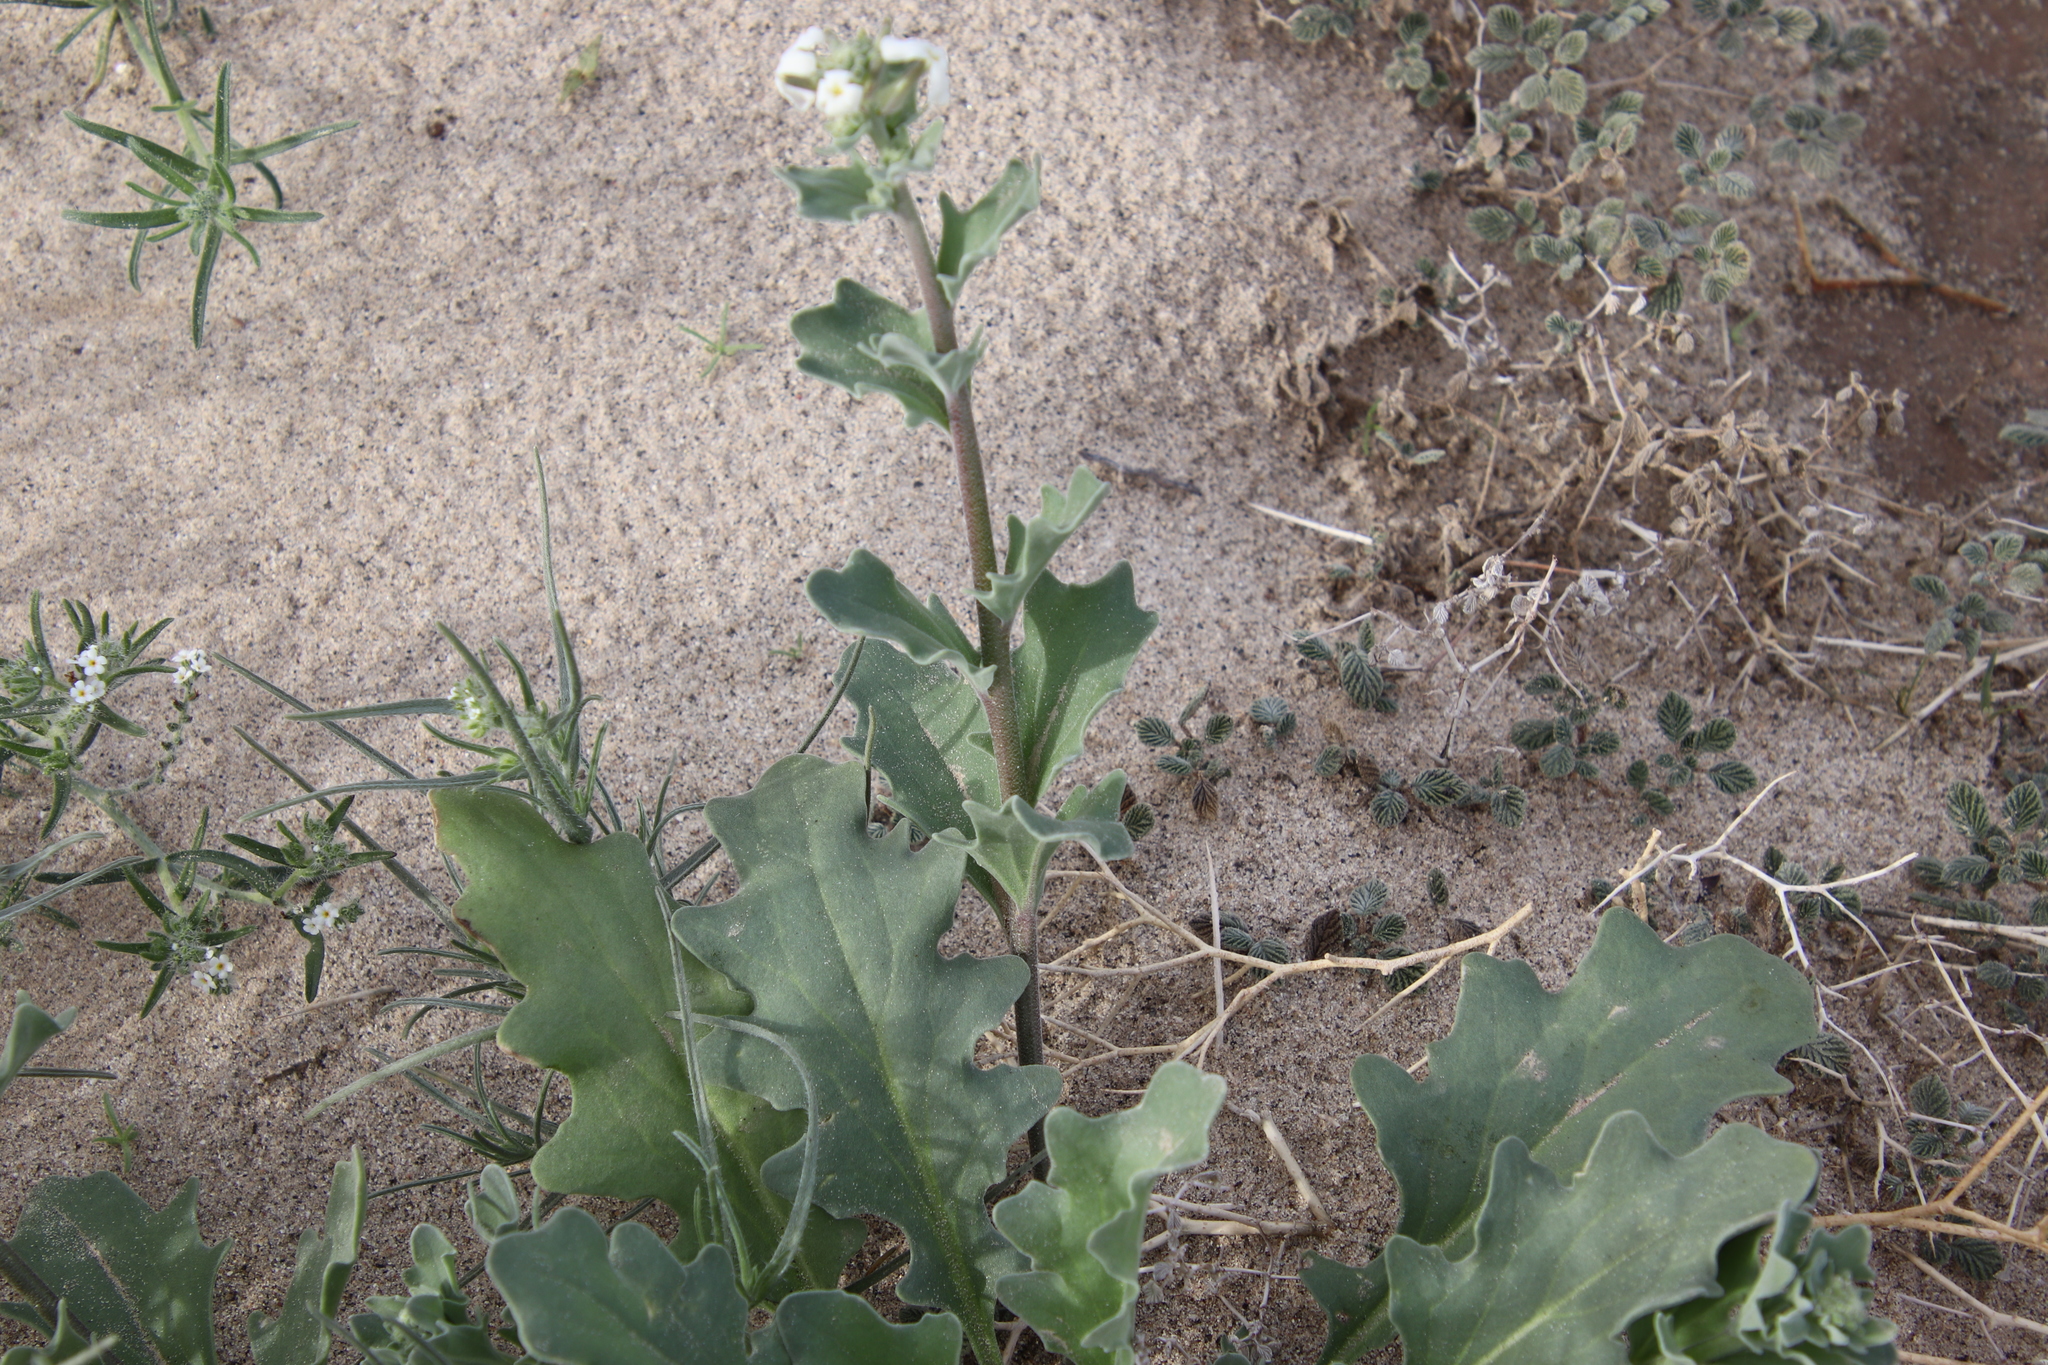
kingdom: Plantae
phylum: Tracheophyta
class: Magnoliopsida
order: Brassicales
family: Brassicaceae
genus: Dithyrea
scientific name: Dithyrea californica
